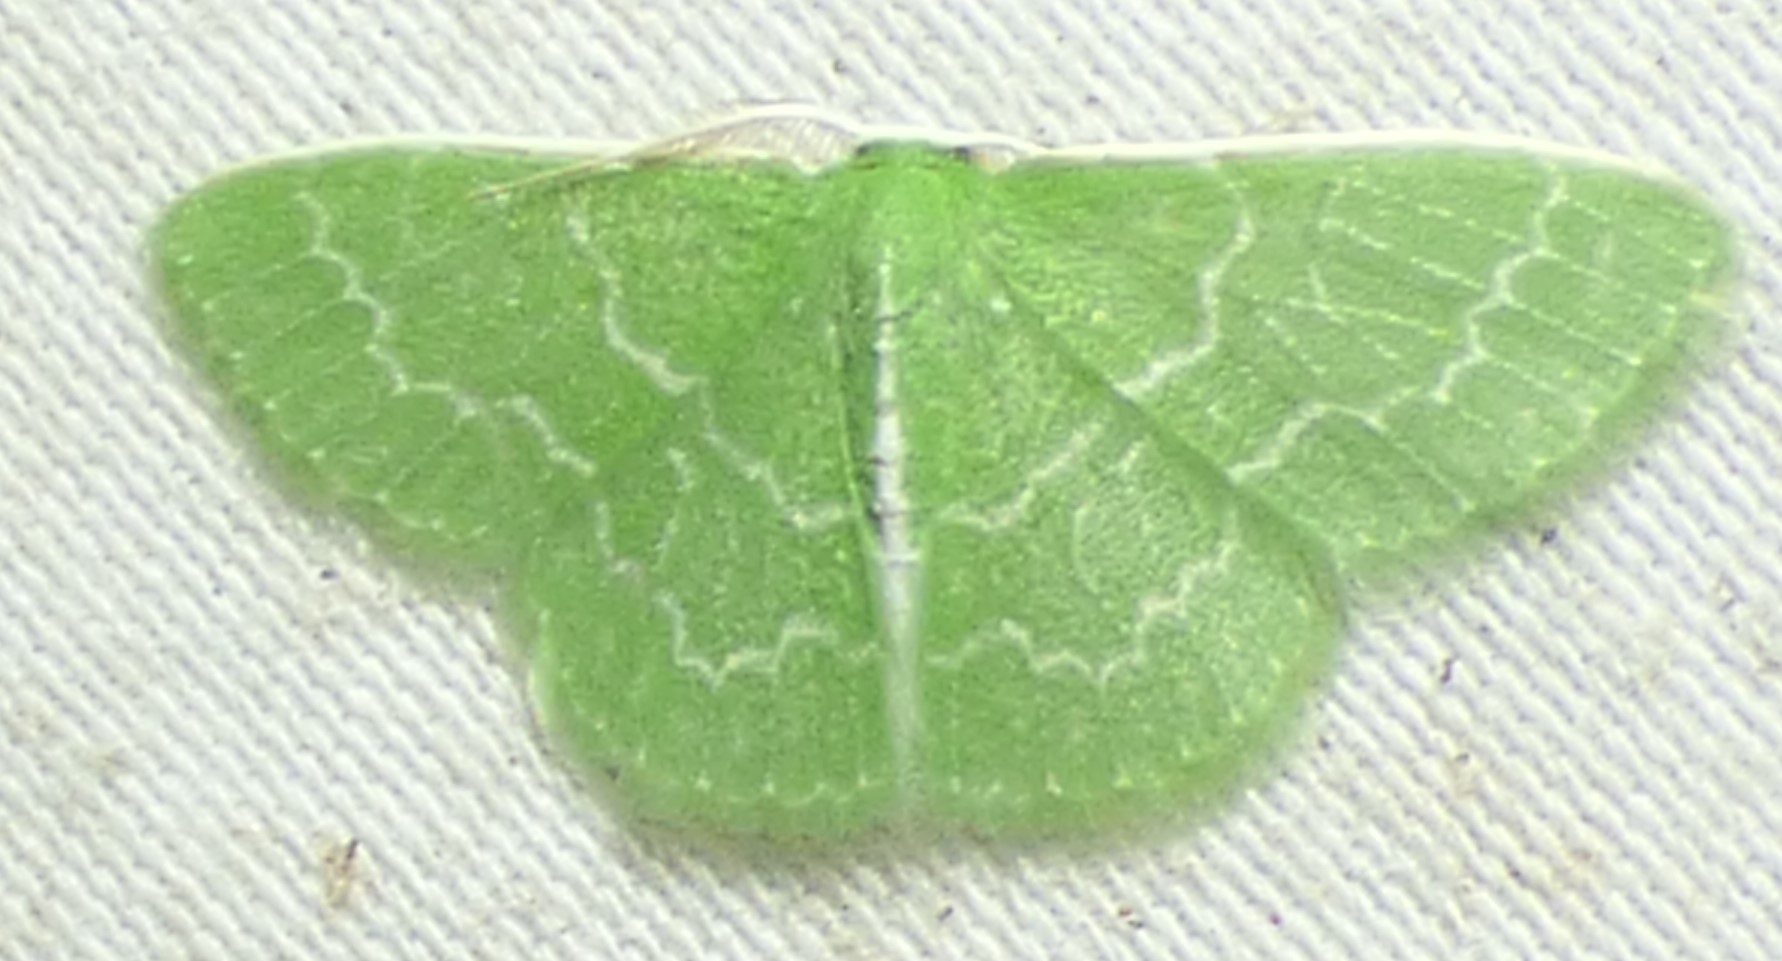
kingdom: Animalia
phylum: Arthropoda
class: Insecta
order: Lepidoptera
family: Geometridae
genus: Synchlora
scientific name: Synchlora frondaria
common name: Southern emerald
